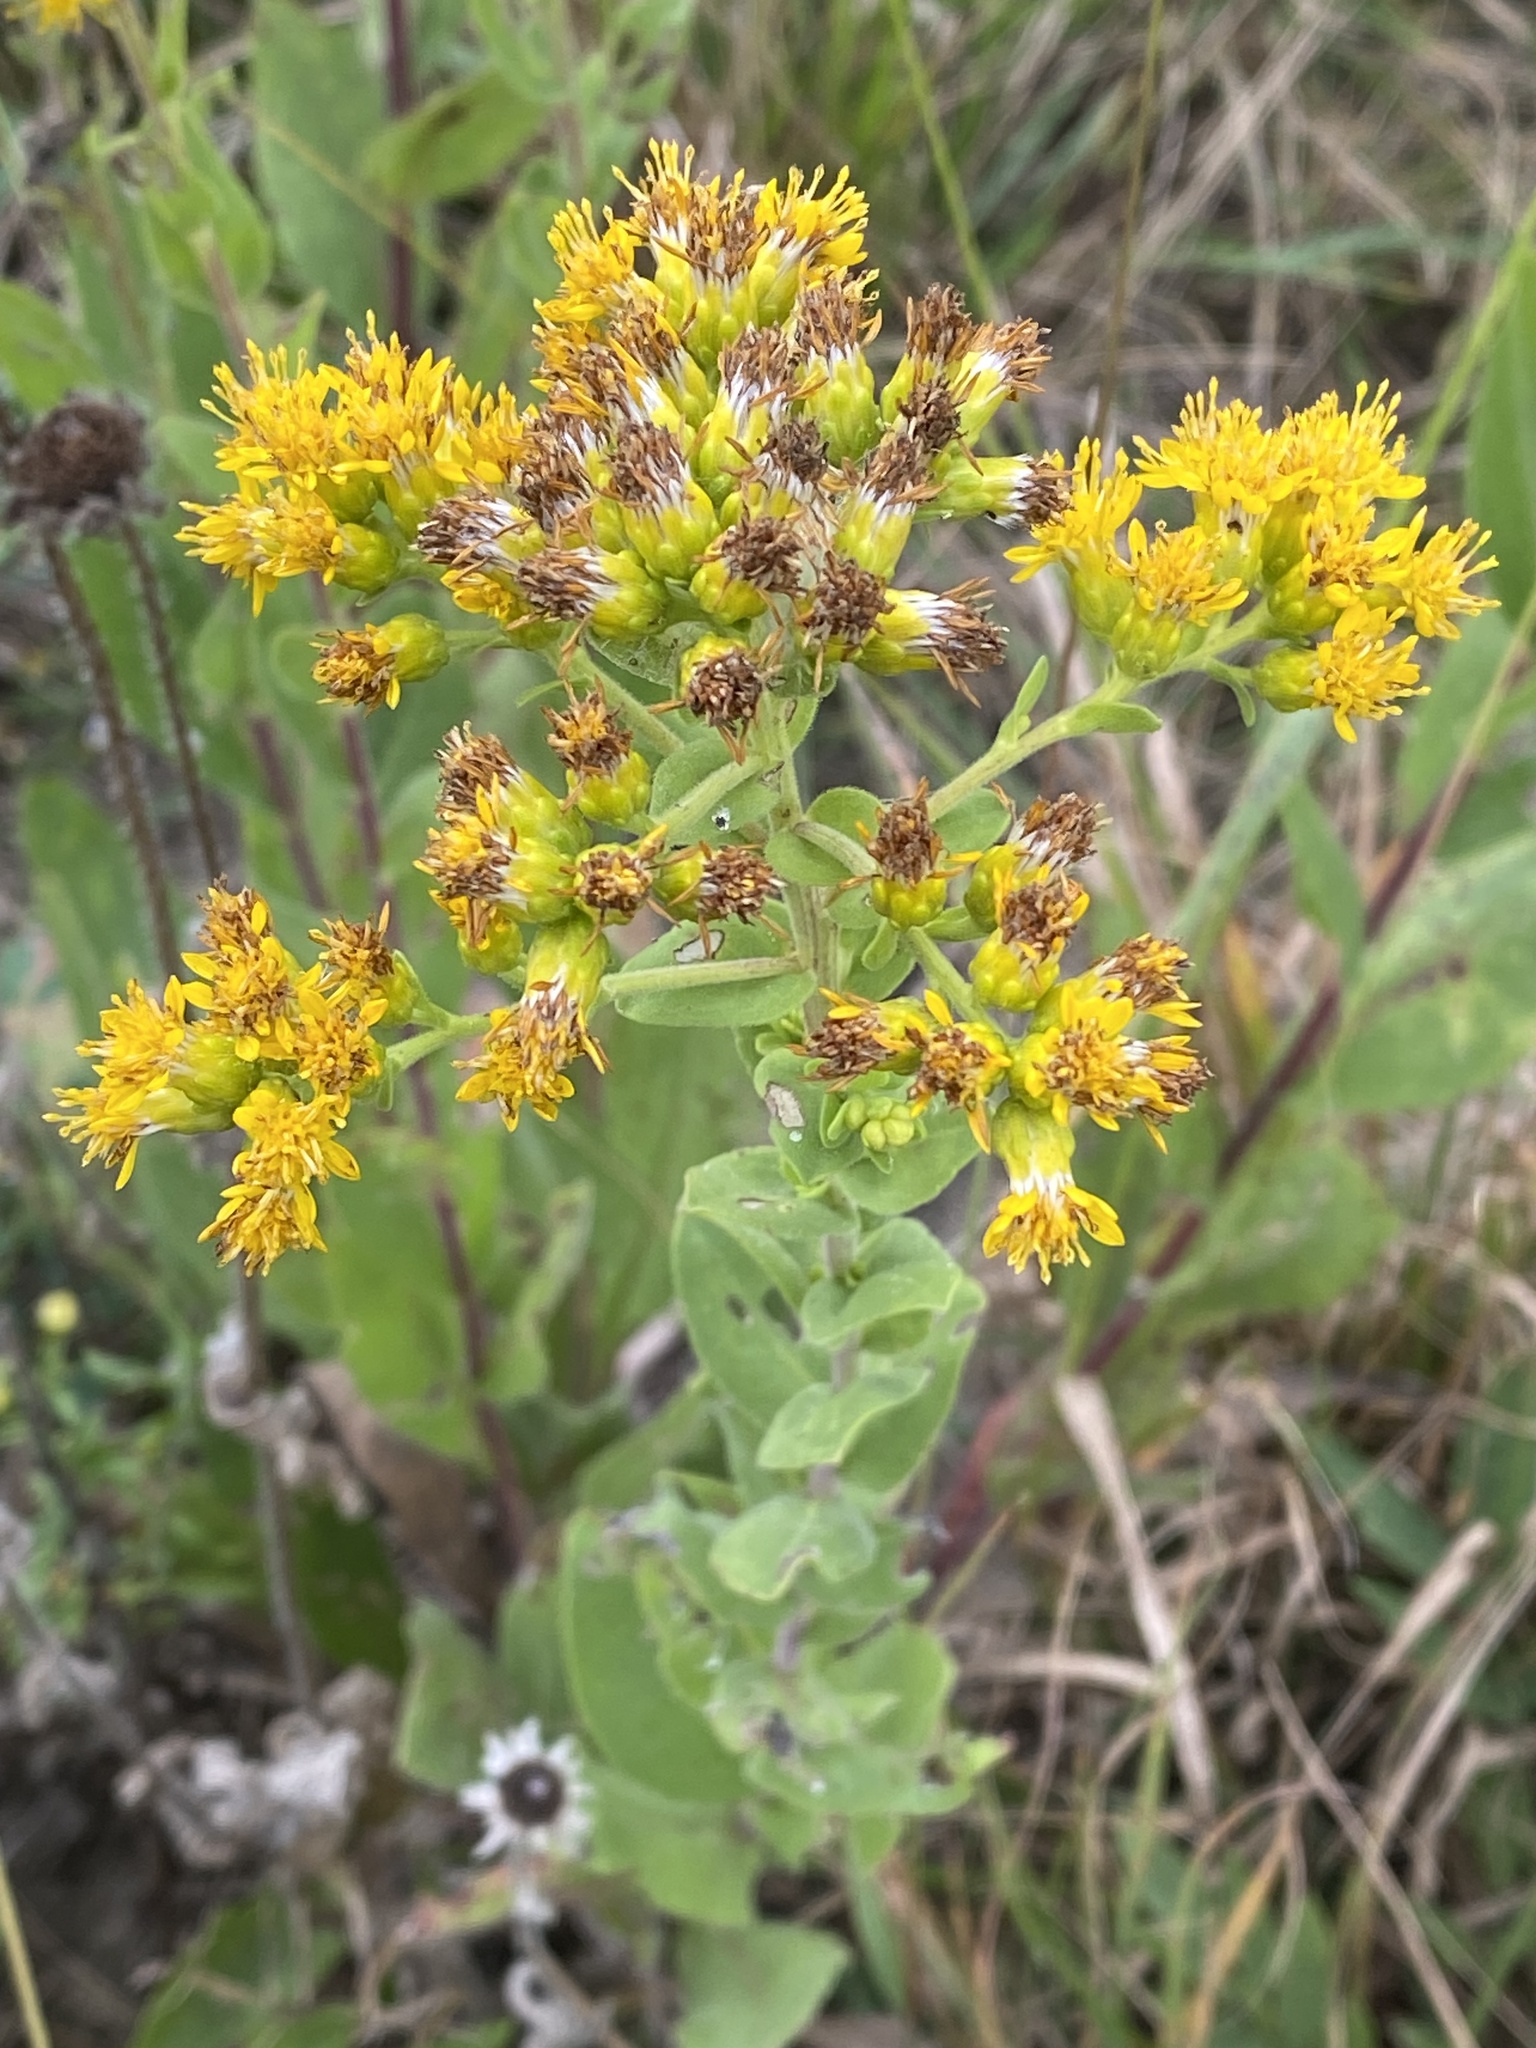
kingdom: Plantae
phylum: Tracheophyta
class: Magnoliopsida
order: Asterales
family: Asteraceae
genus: Solidago
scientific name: Solidago rigida
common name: Rigid goldenrod
